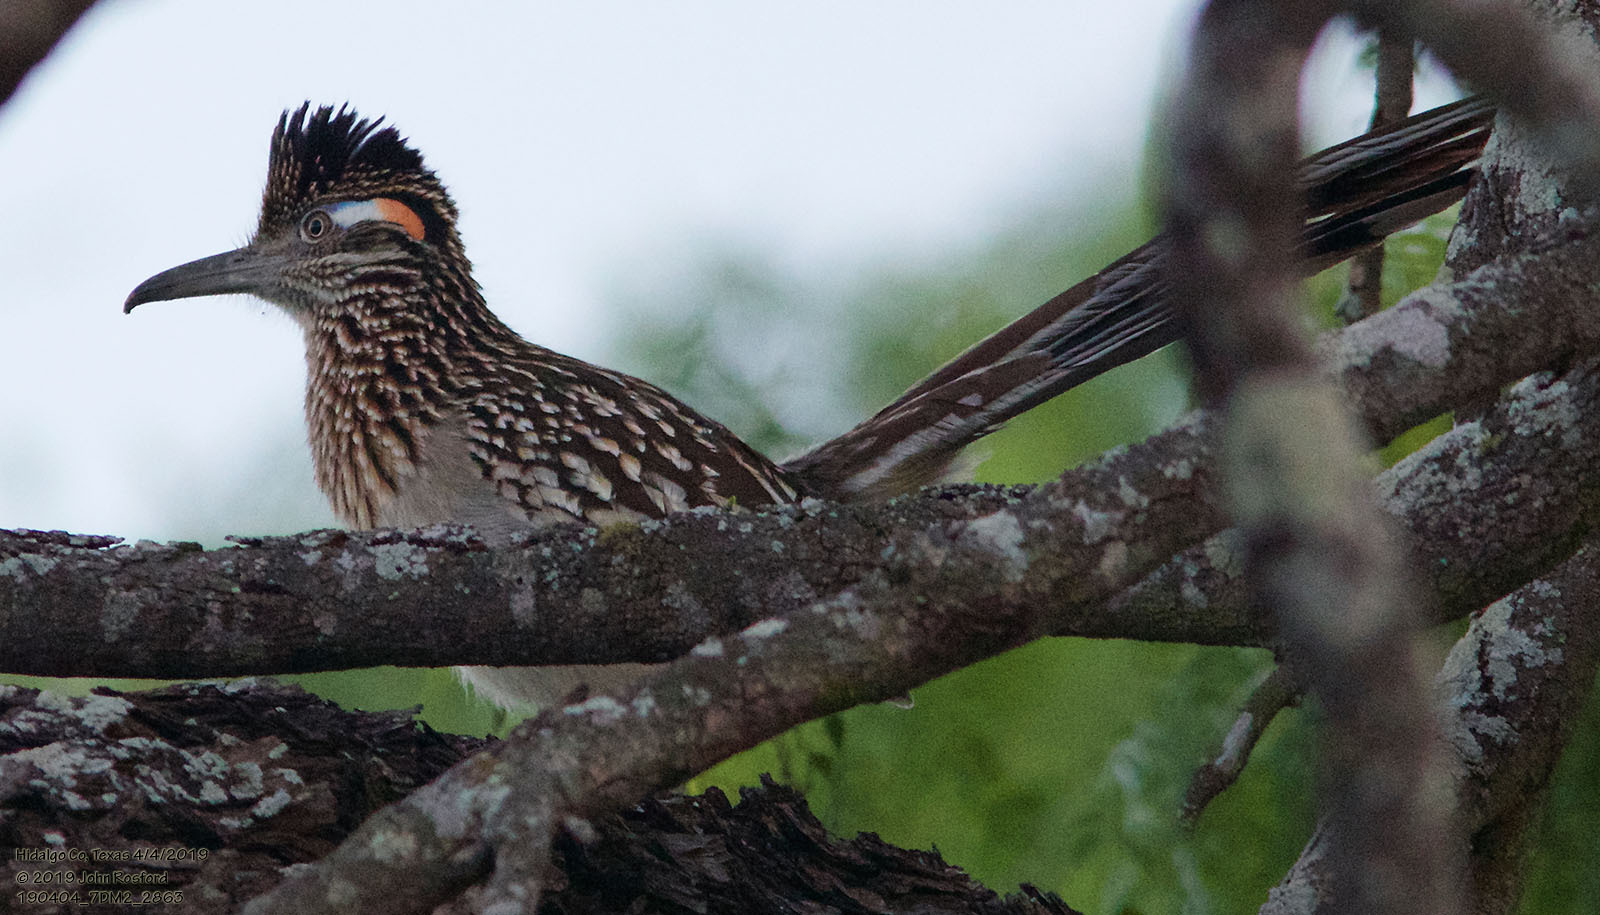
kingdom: Animalia
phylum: Chordata
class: Aves
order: Cuculiformes
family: Cuculidae
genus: Geococcyx
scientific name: Geococcyx californianus
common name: Greater roadrunner
